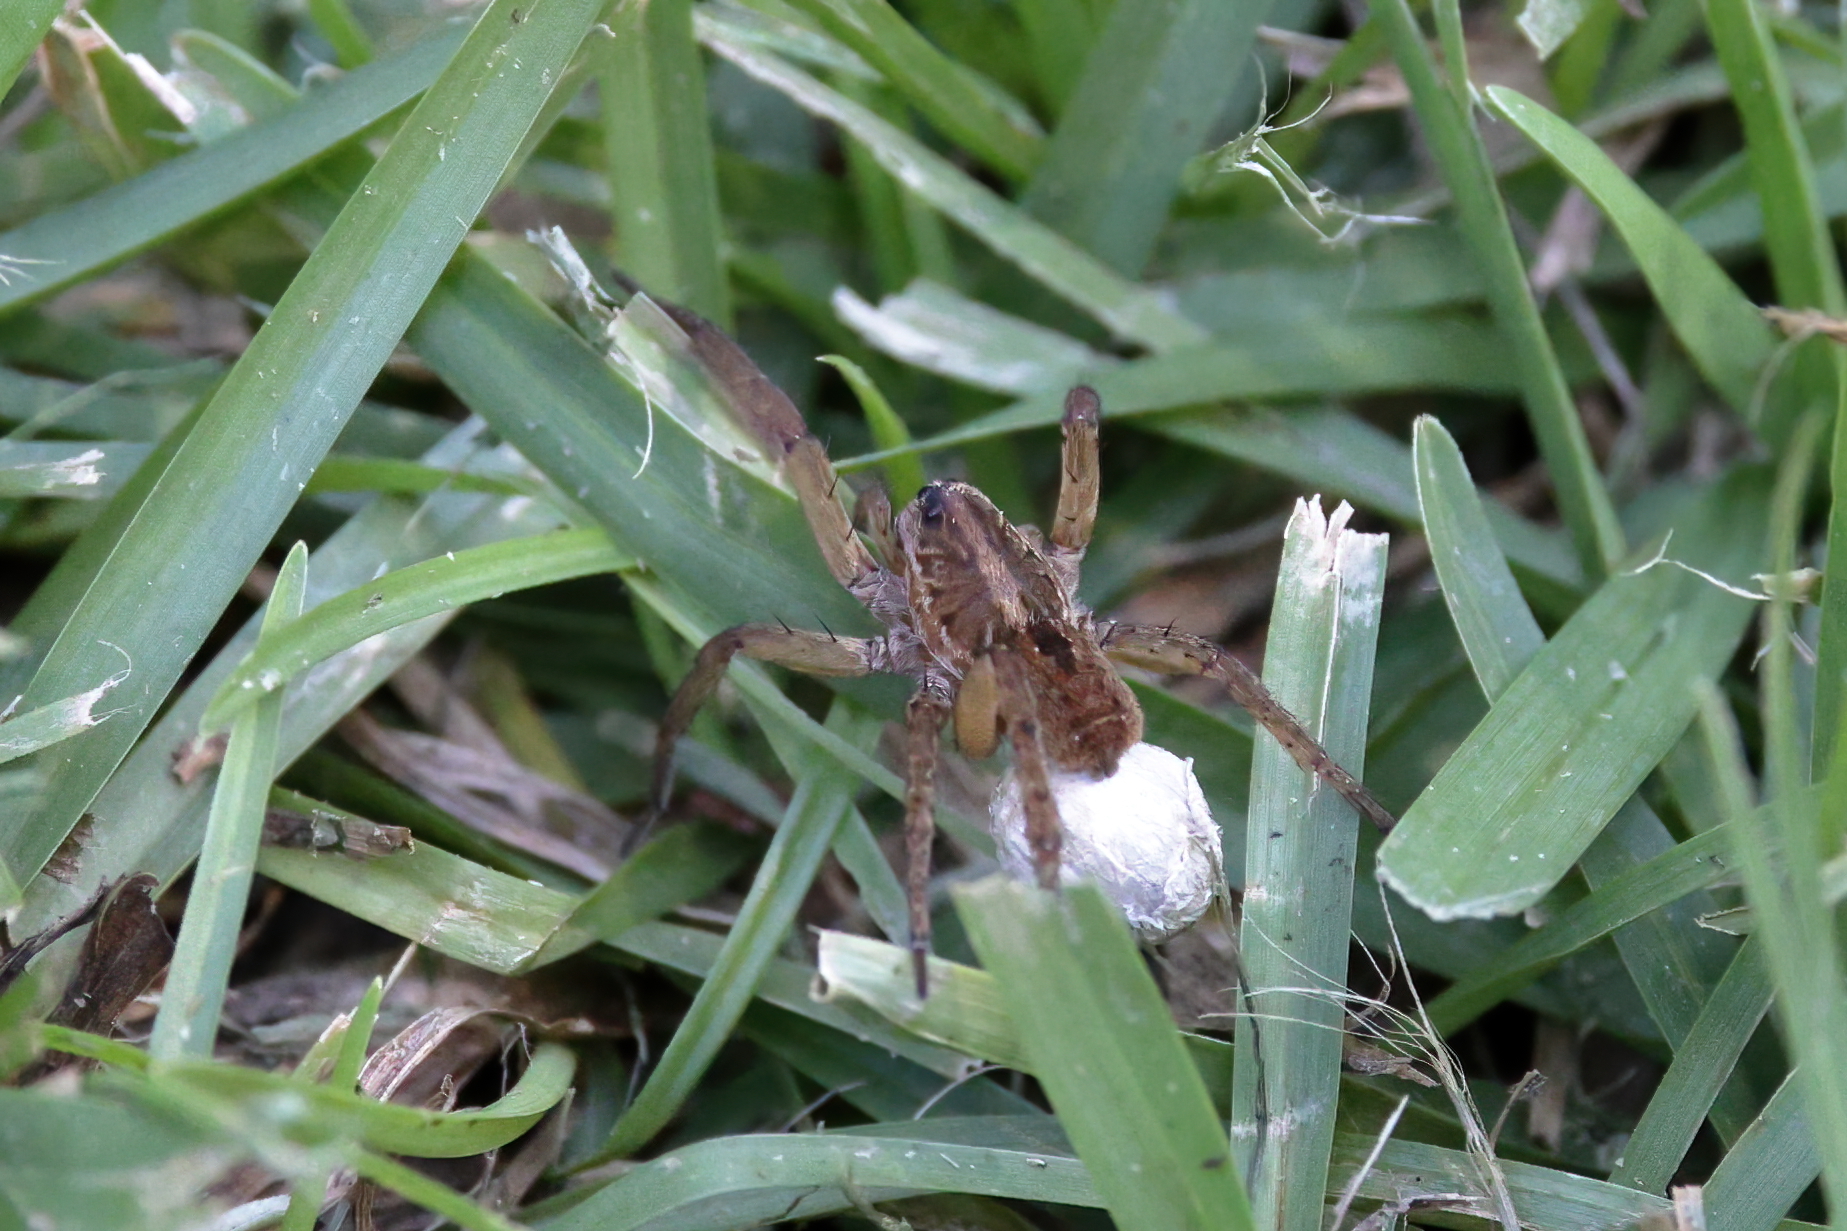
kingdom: Animalia
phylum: Arthropoda
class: Arachnida
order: Araneae
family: Lycosidae
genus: Tigrosa
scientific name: Tigrosa annexa
